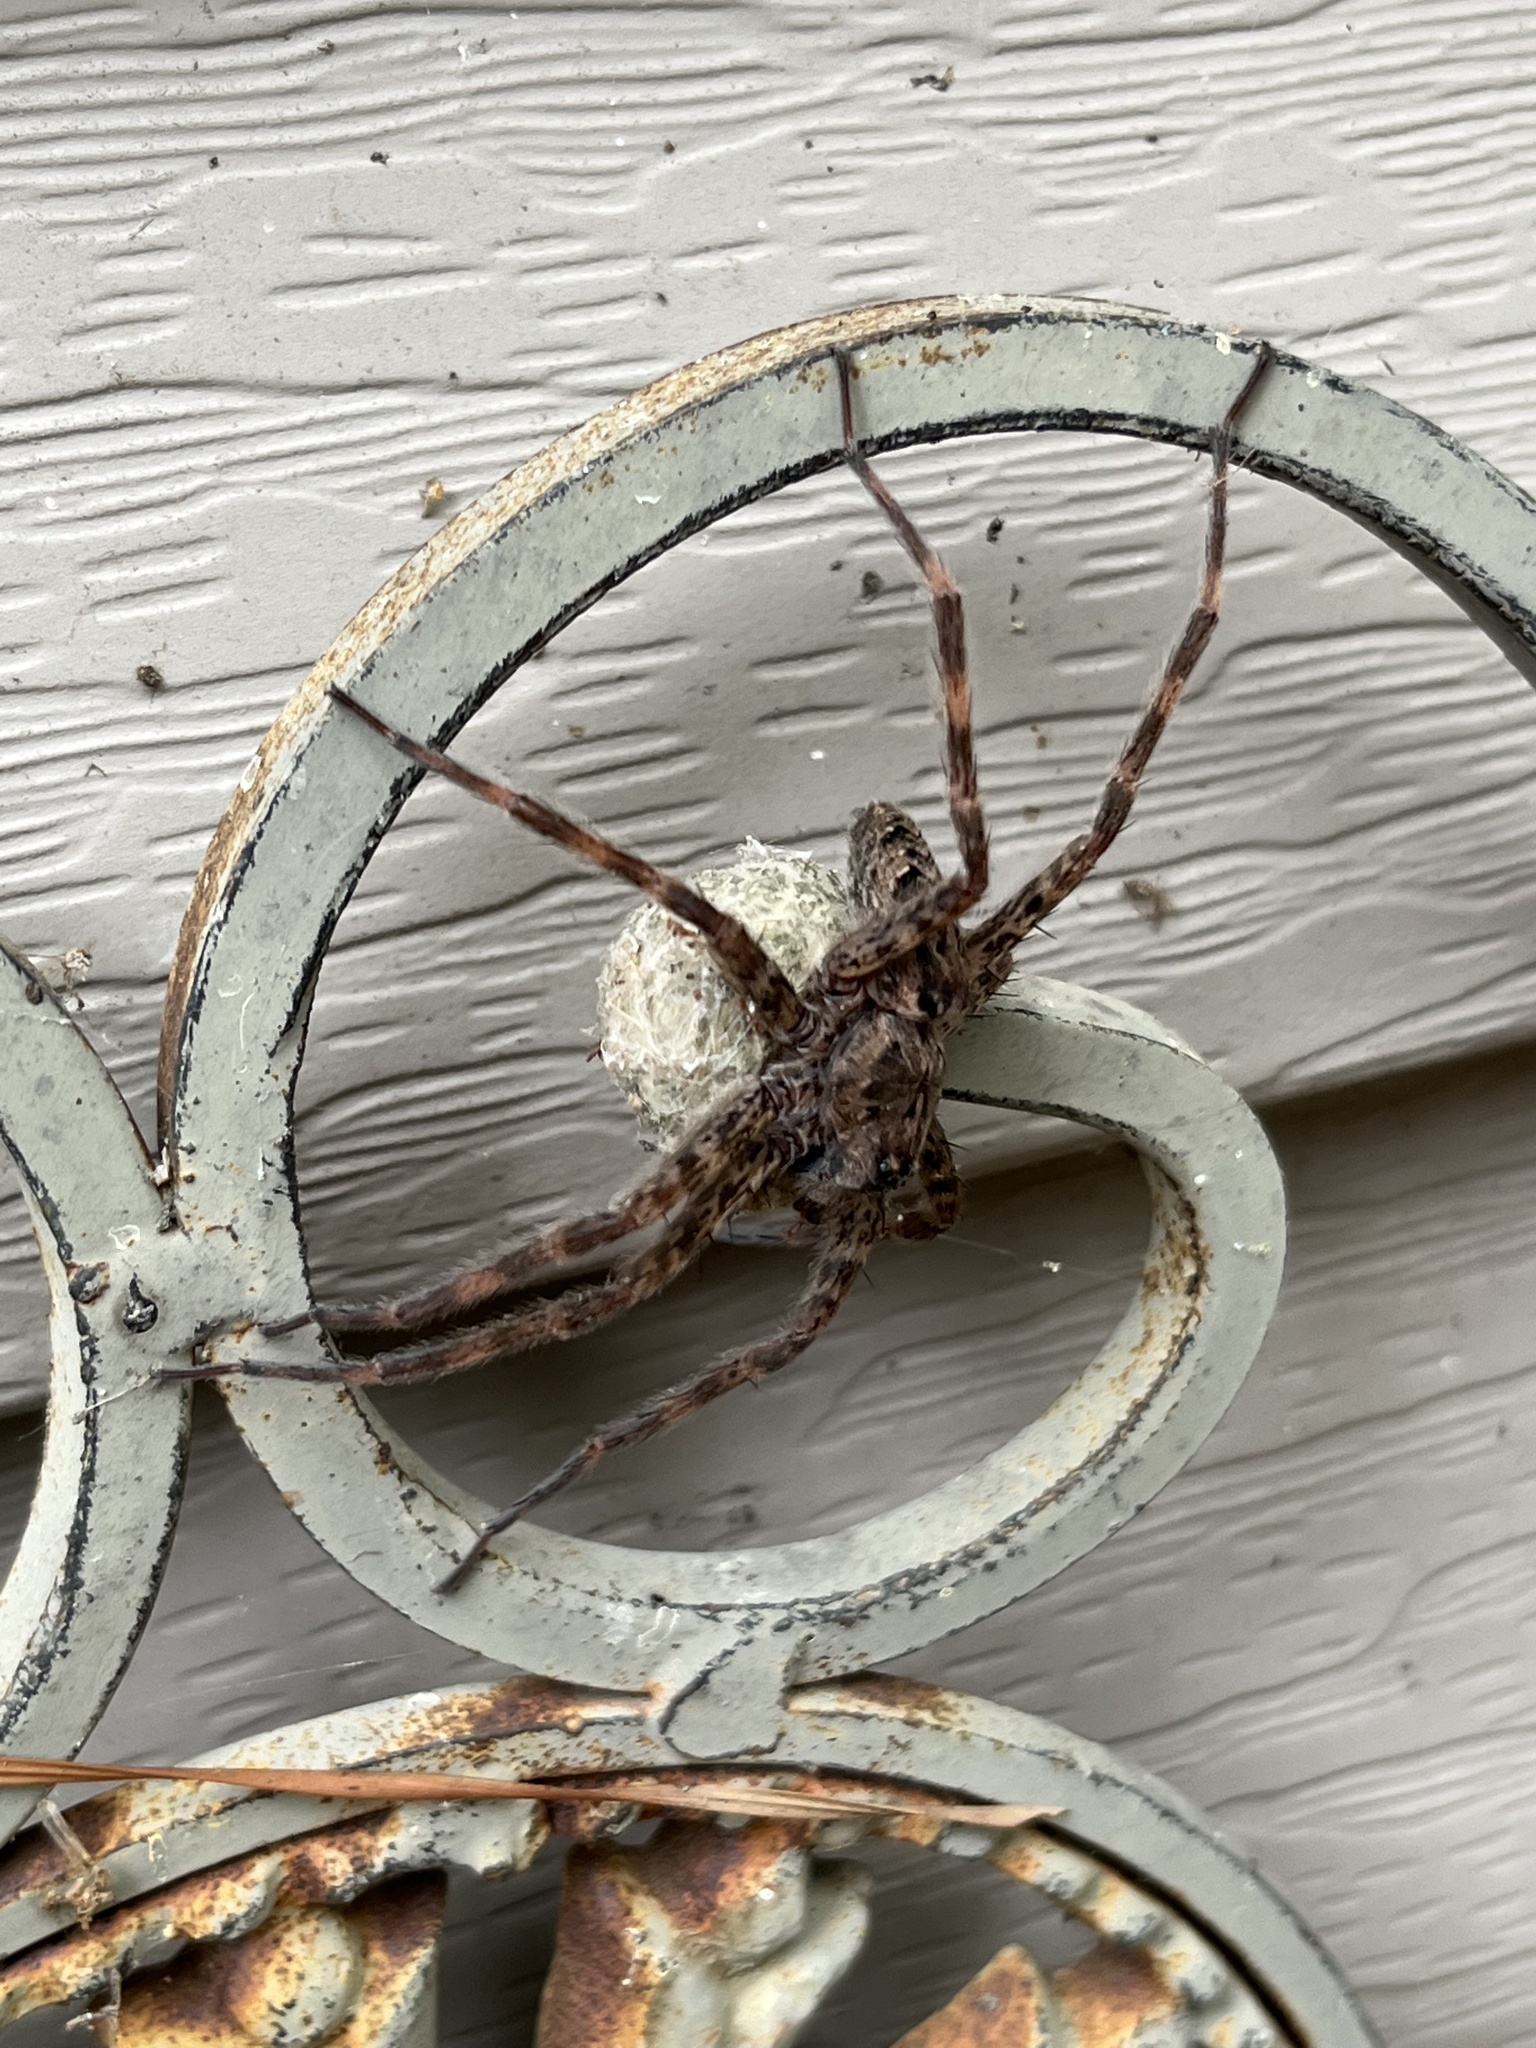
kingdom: Animalia
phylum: Arthropoda
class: Arachnida
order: Araneae
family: Pisauridae
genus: Dolomedes
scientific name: Dolomedes tenebrosus
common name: Dark fishing spider
